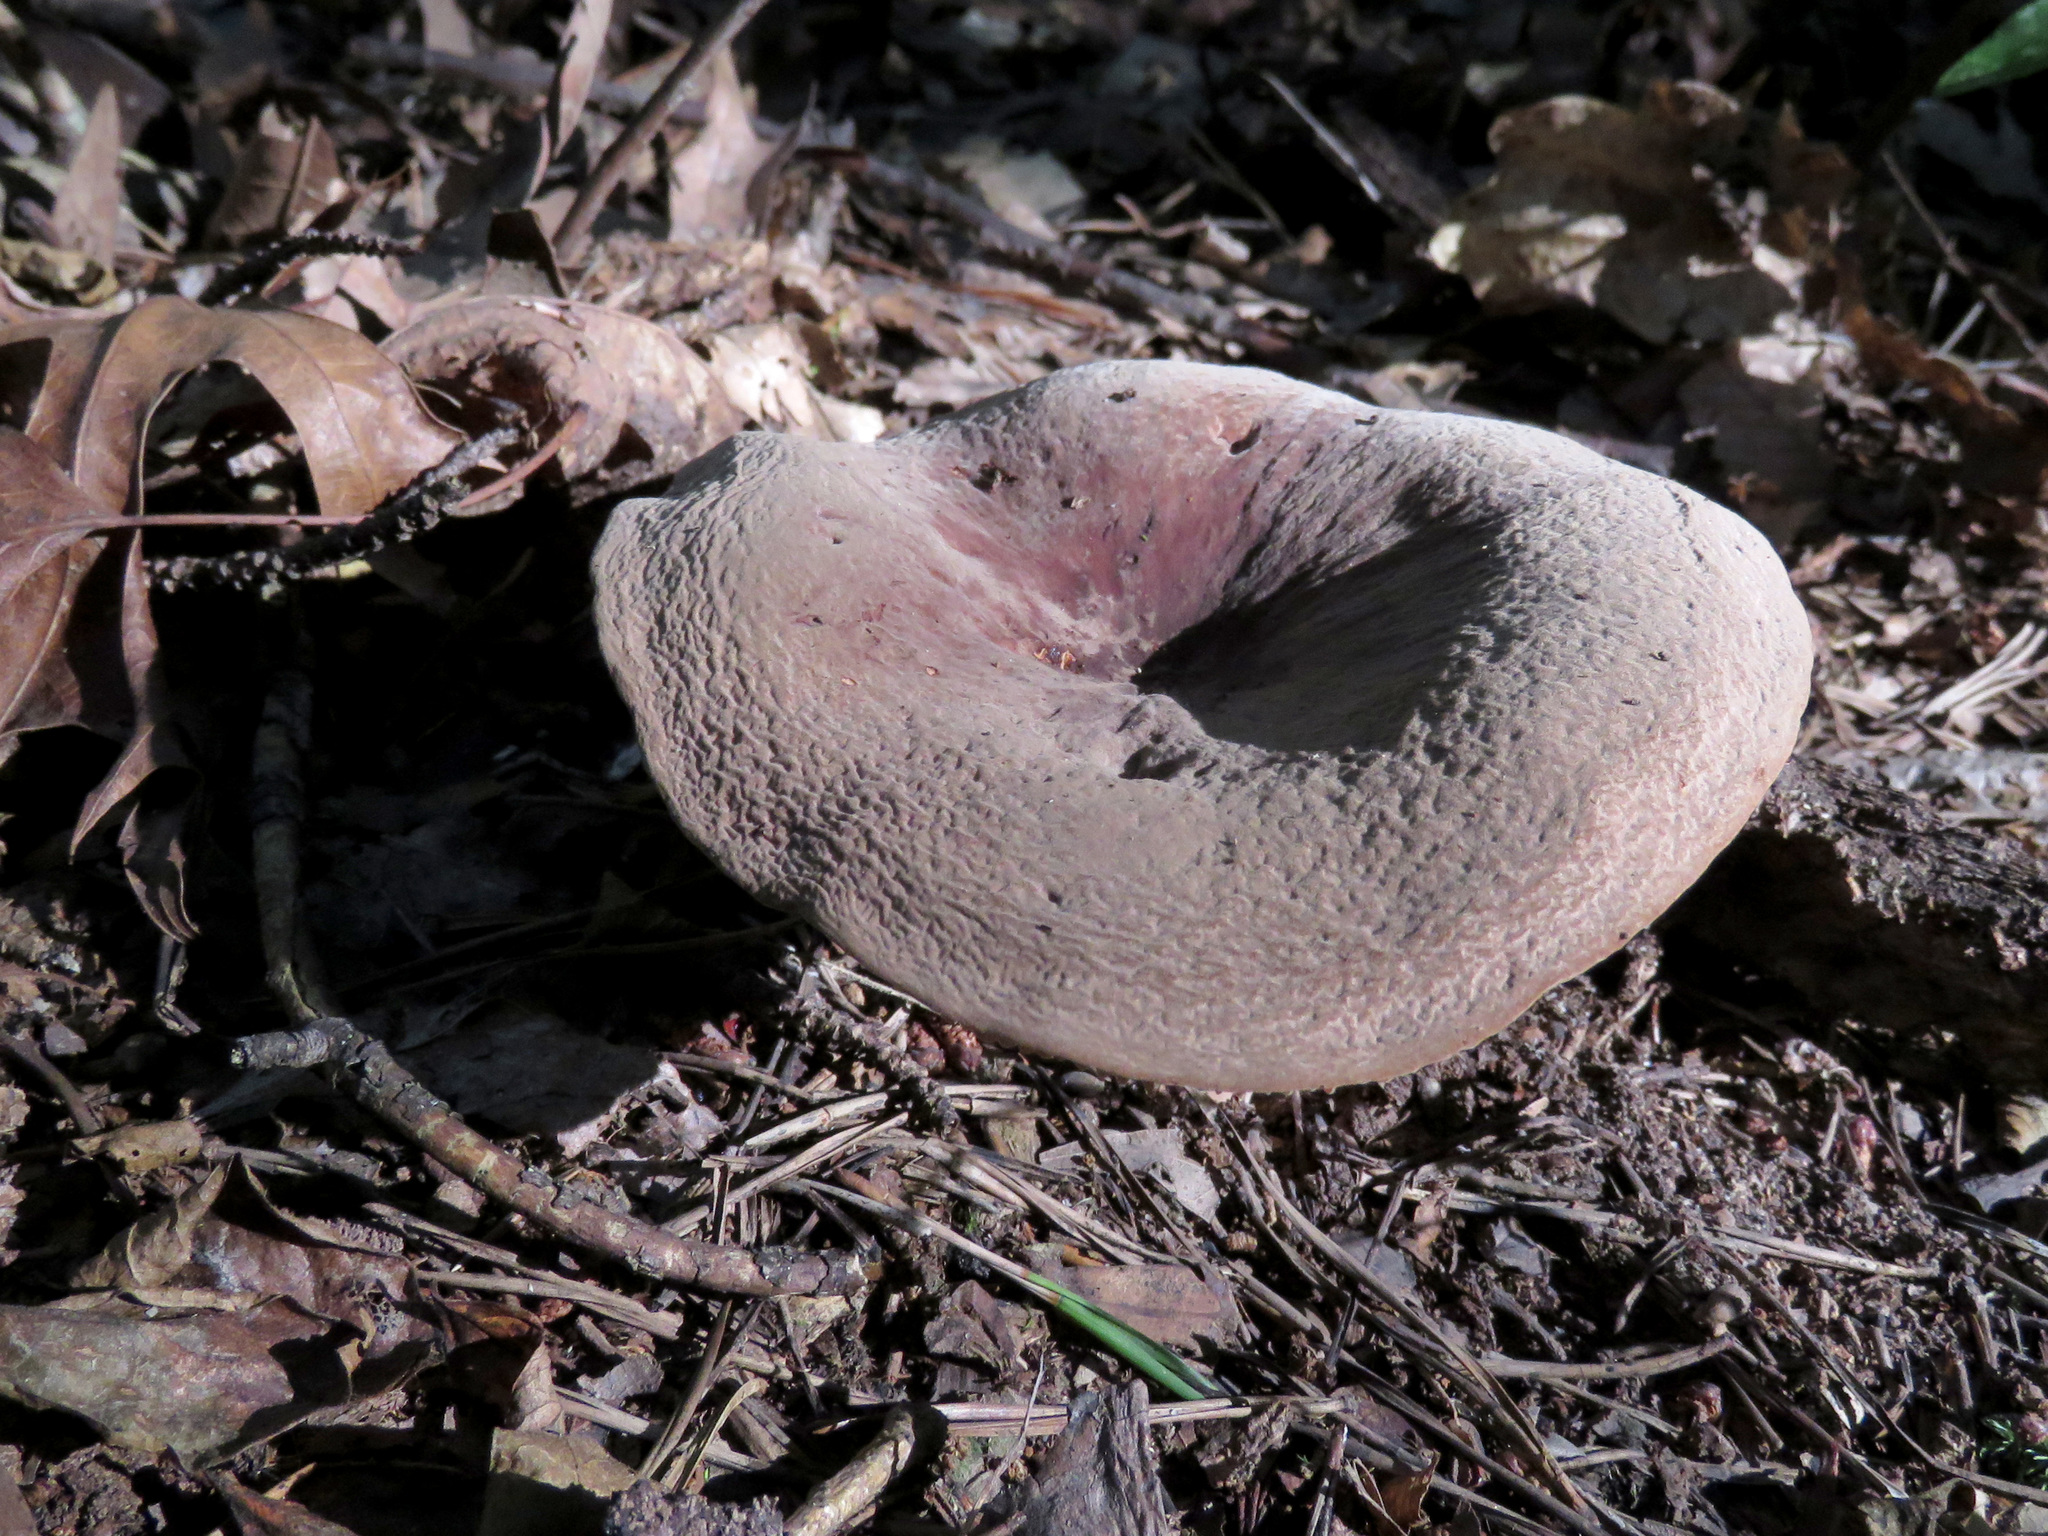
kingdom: Fungi
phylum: Basidiomycota
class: Agaricomycetes
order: Russulales
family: Russulaceae
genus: Lactarius
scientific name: Lactarius corrugis
